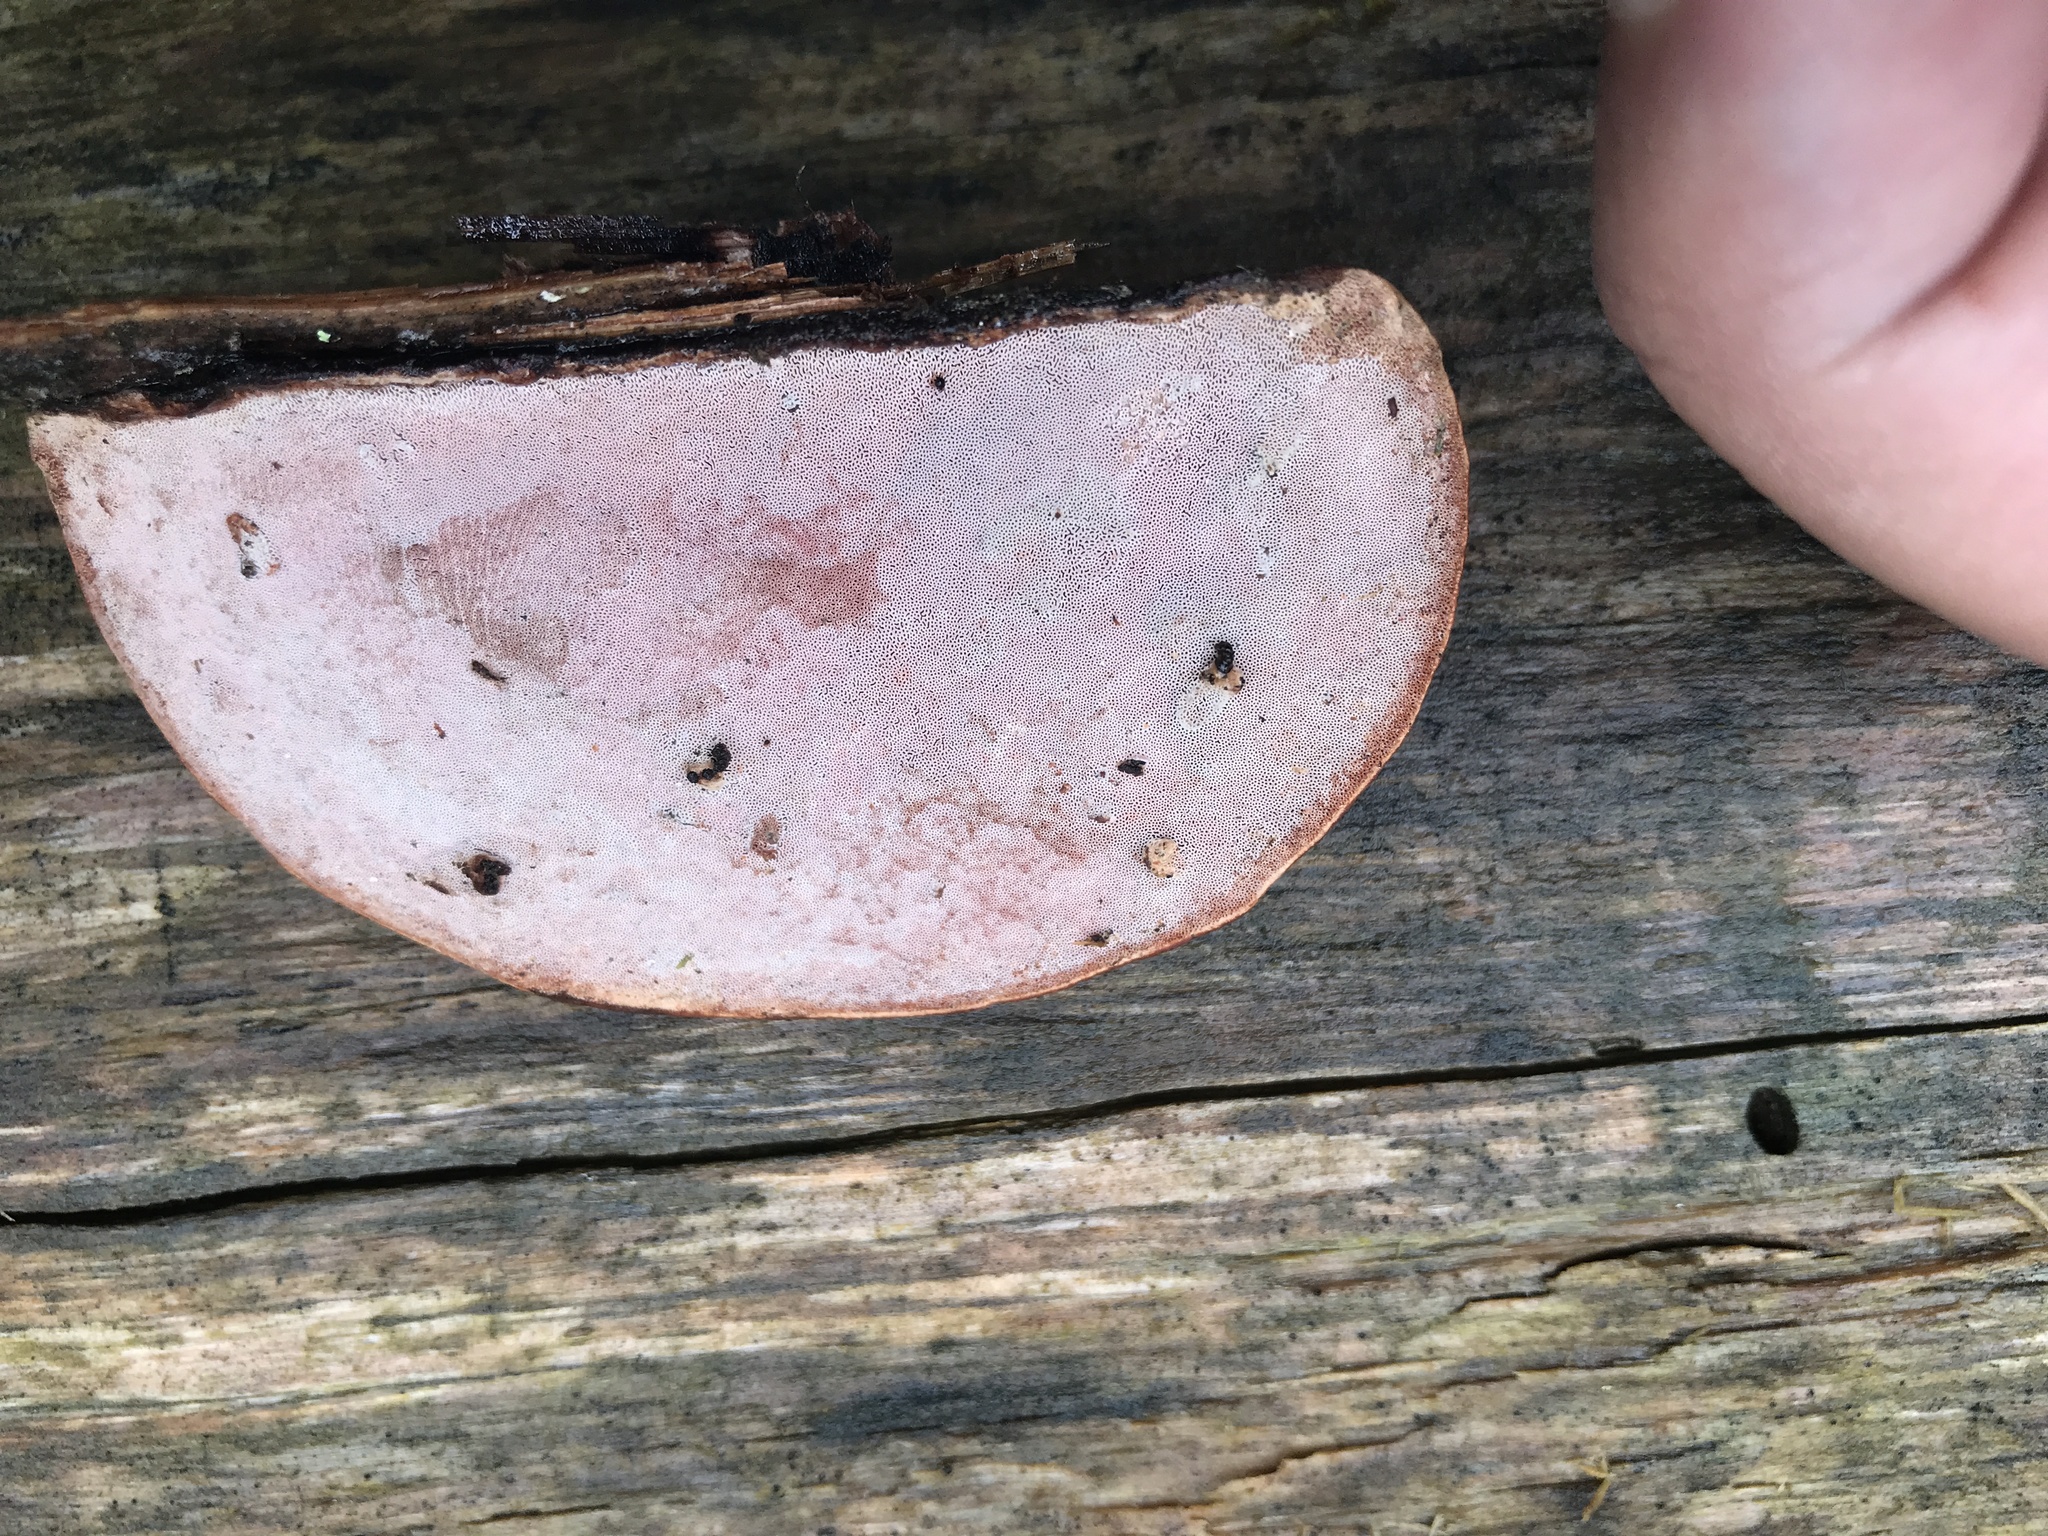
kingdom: Fungi
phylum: Basidiomycota
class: Agaricomycetes
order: Polyporales
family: Fomitopsidaceae
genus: Rhodofomes
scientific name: Rhodofomes cajanderi
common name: Rosy conk
